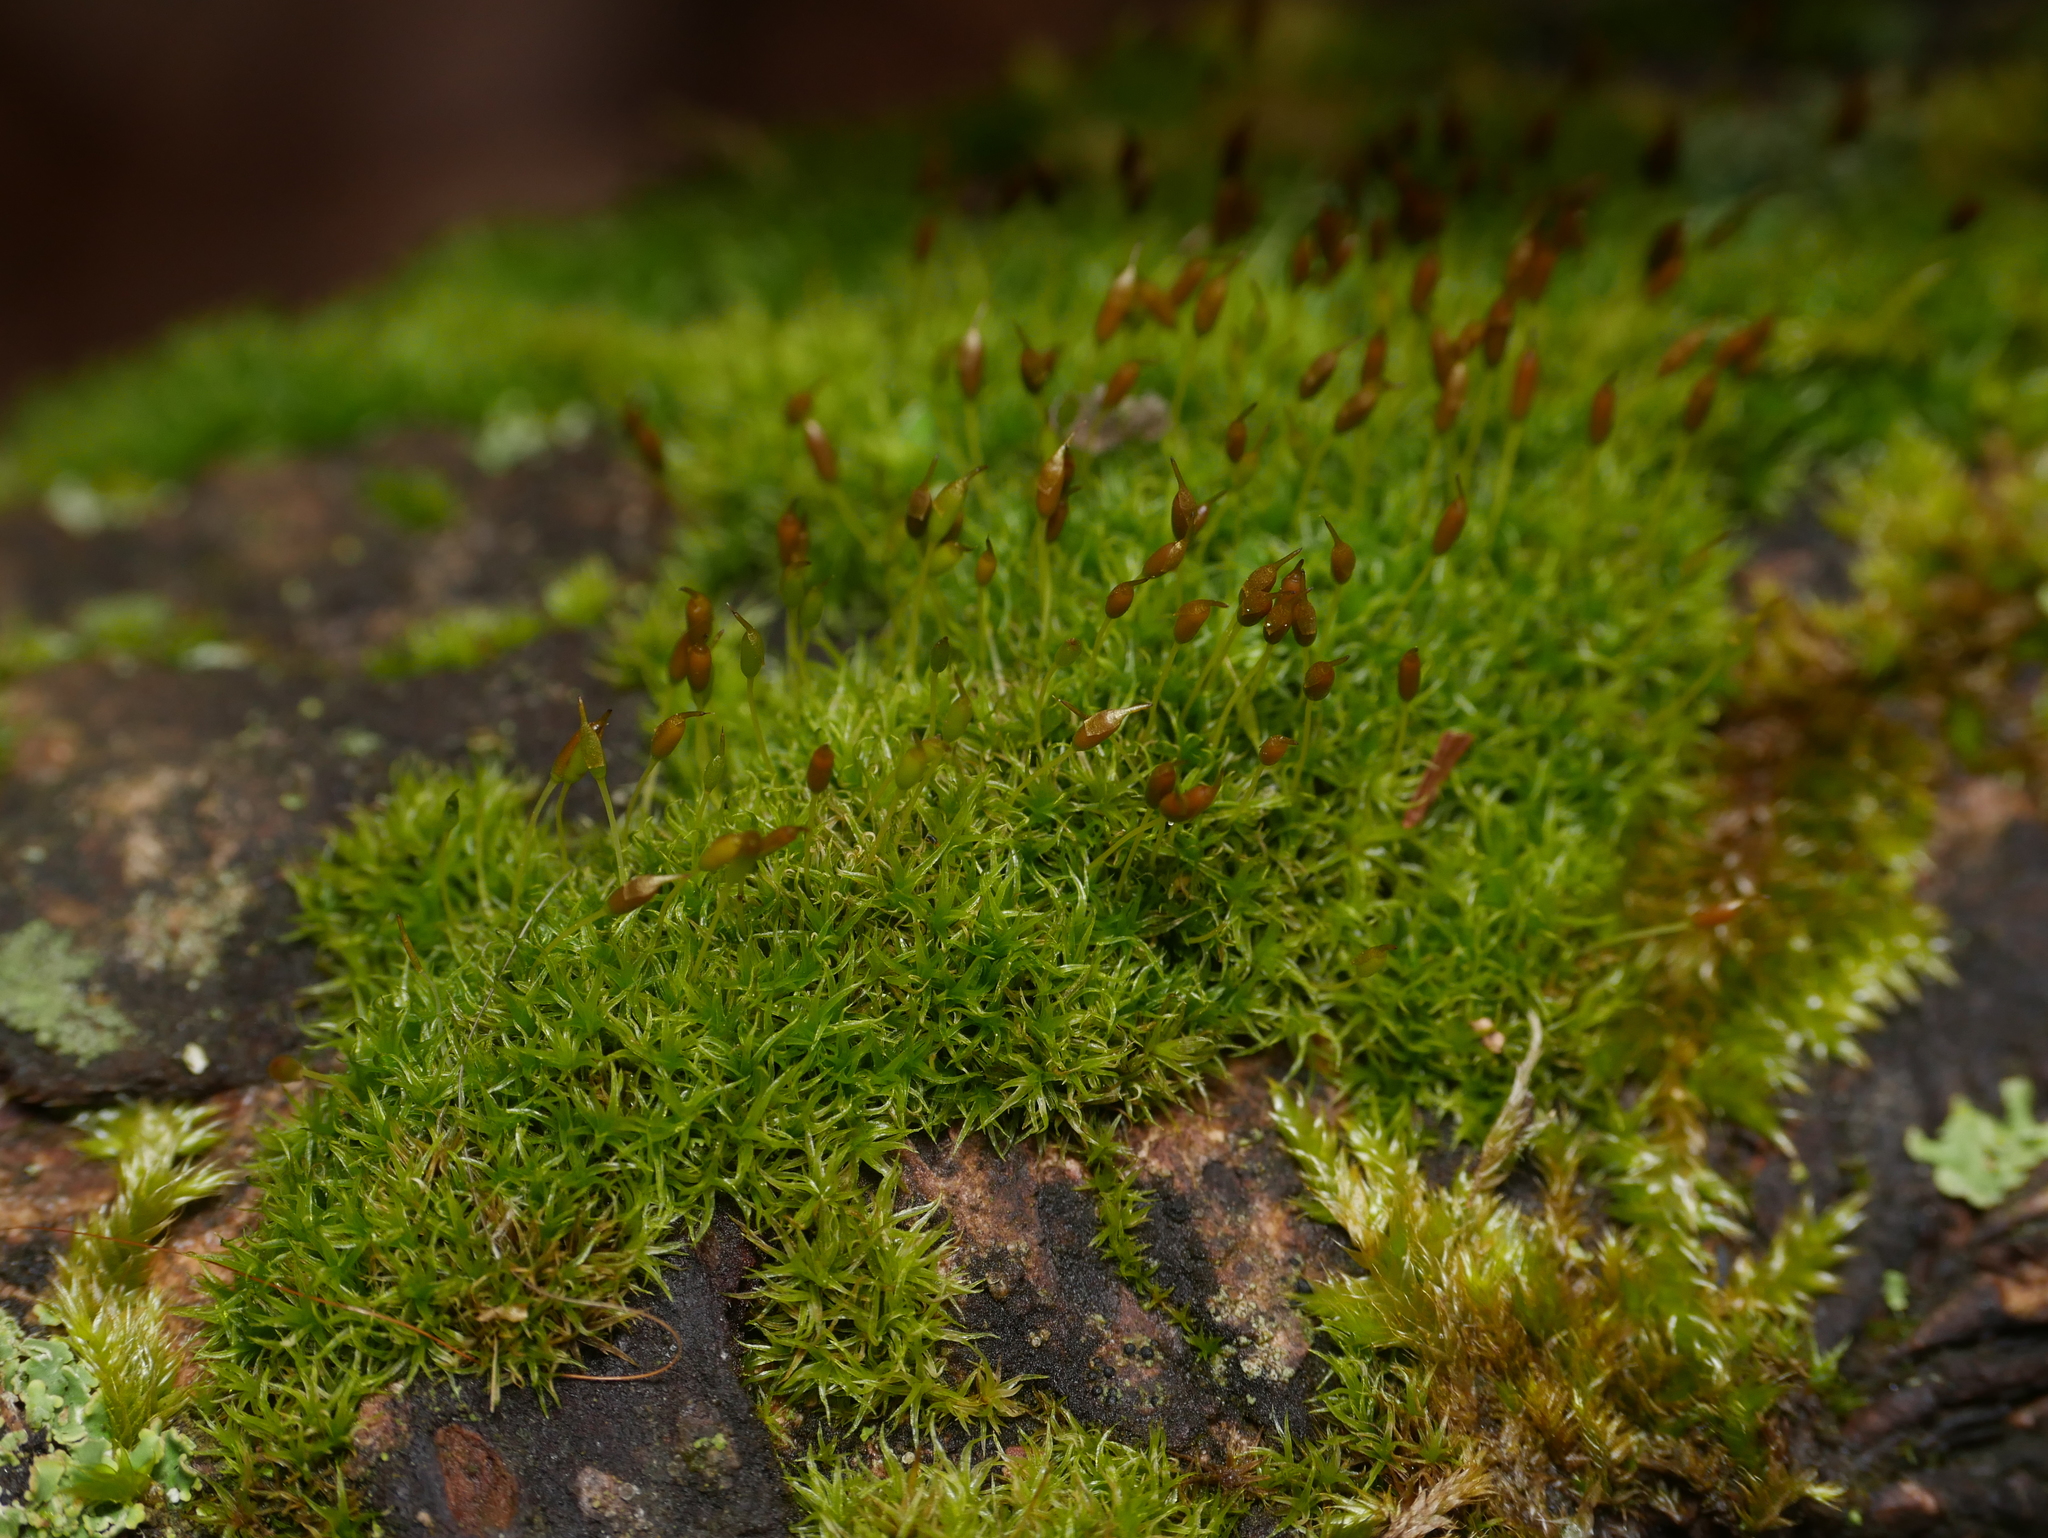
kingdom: Plantae
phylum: Bryophyta
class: Bryopsida
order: Dicranales
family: Rhabdoweisiaceae
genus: Dicranoweisia
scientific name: Dicranoweisia cirrata
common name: Common pincushion
